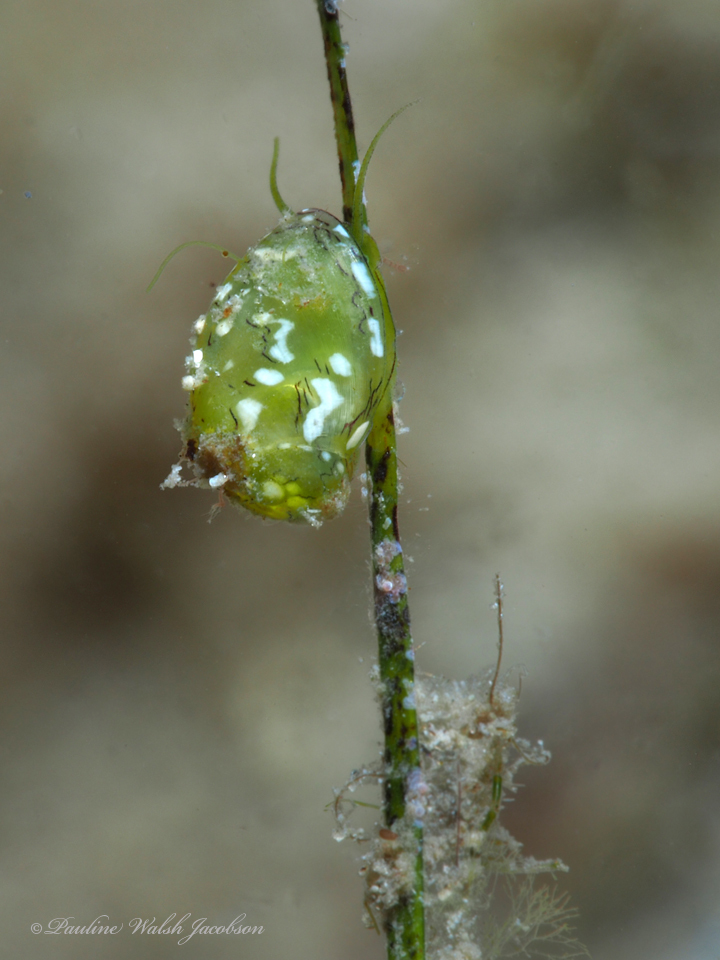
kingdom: Animalia
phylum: Mollusca
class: Gastropoda
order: Cycloneritida
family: Neritidae
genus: Smaragdia
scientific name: Smaragdia viridis
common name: Emerald nerite
